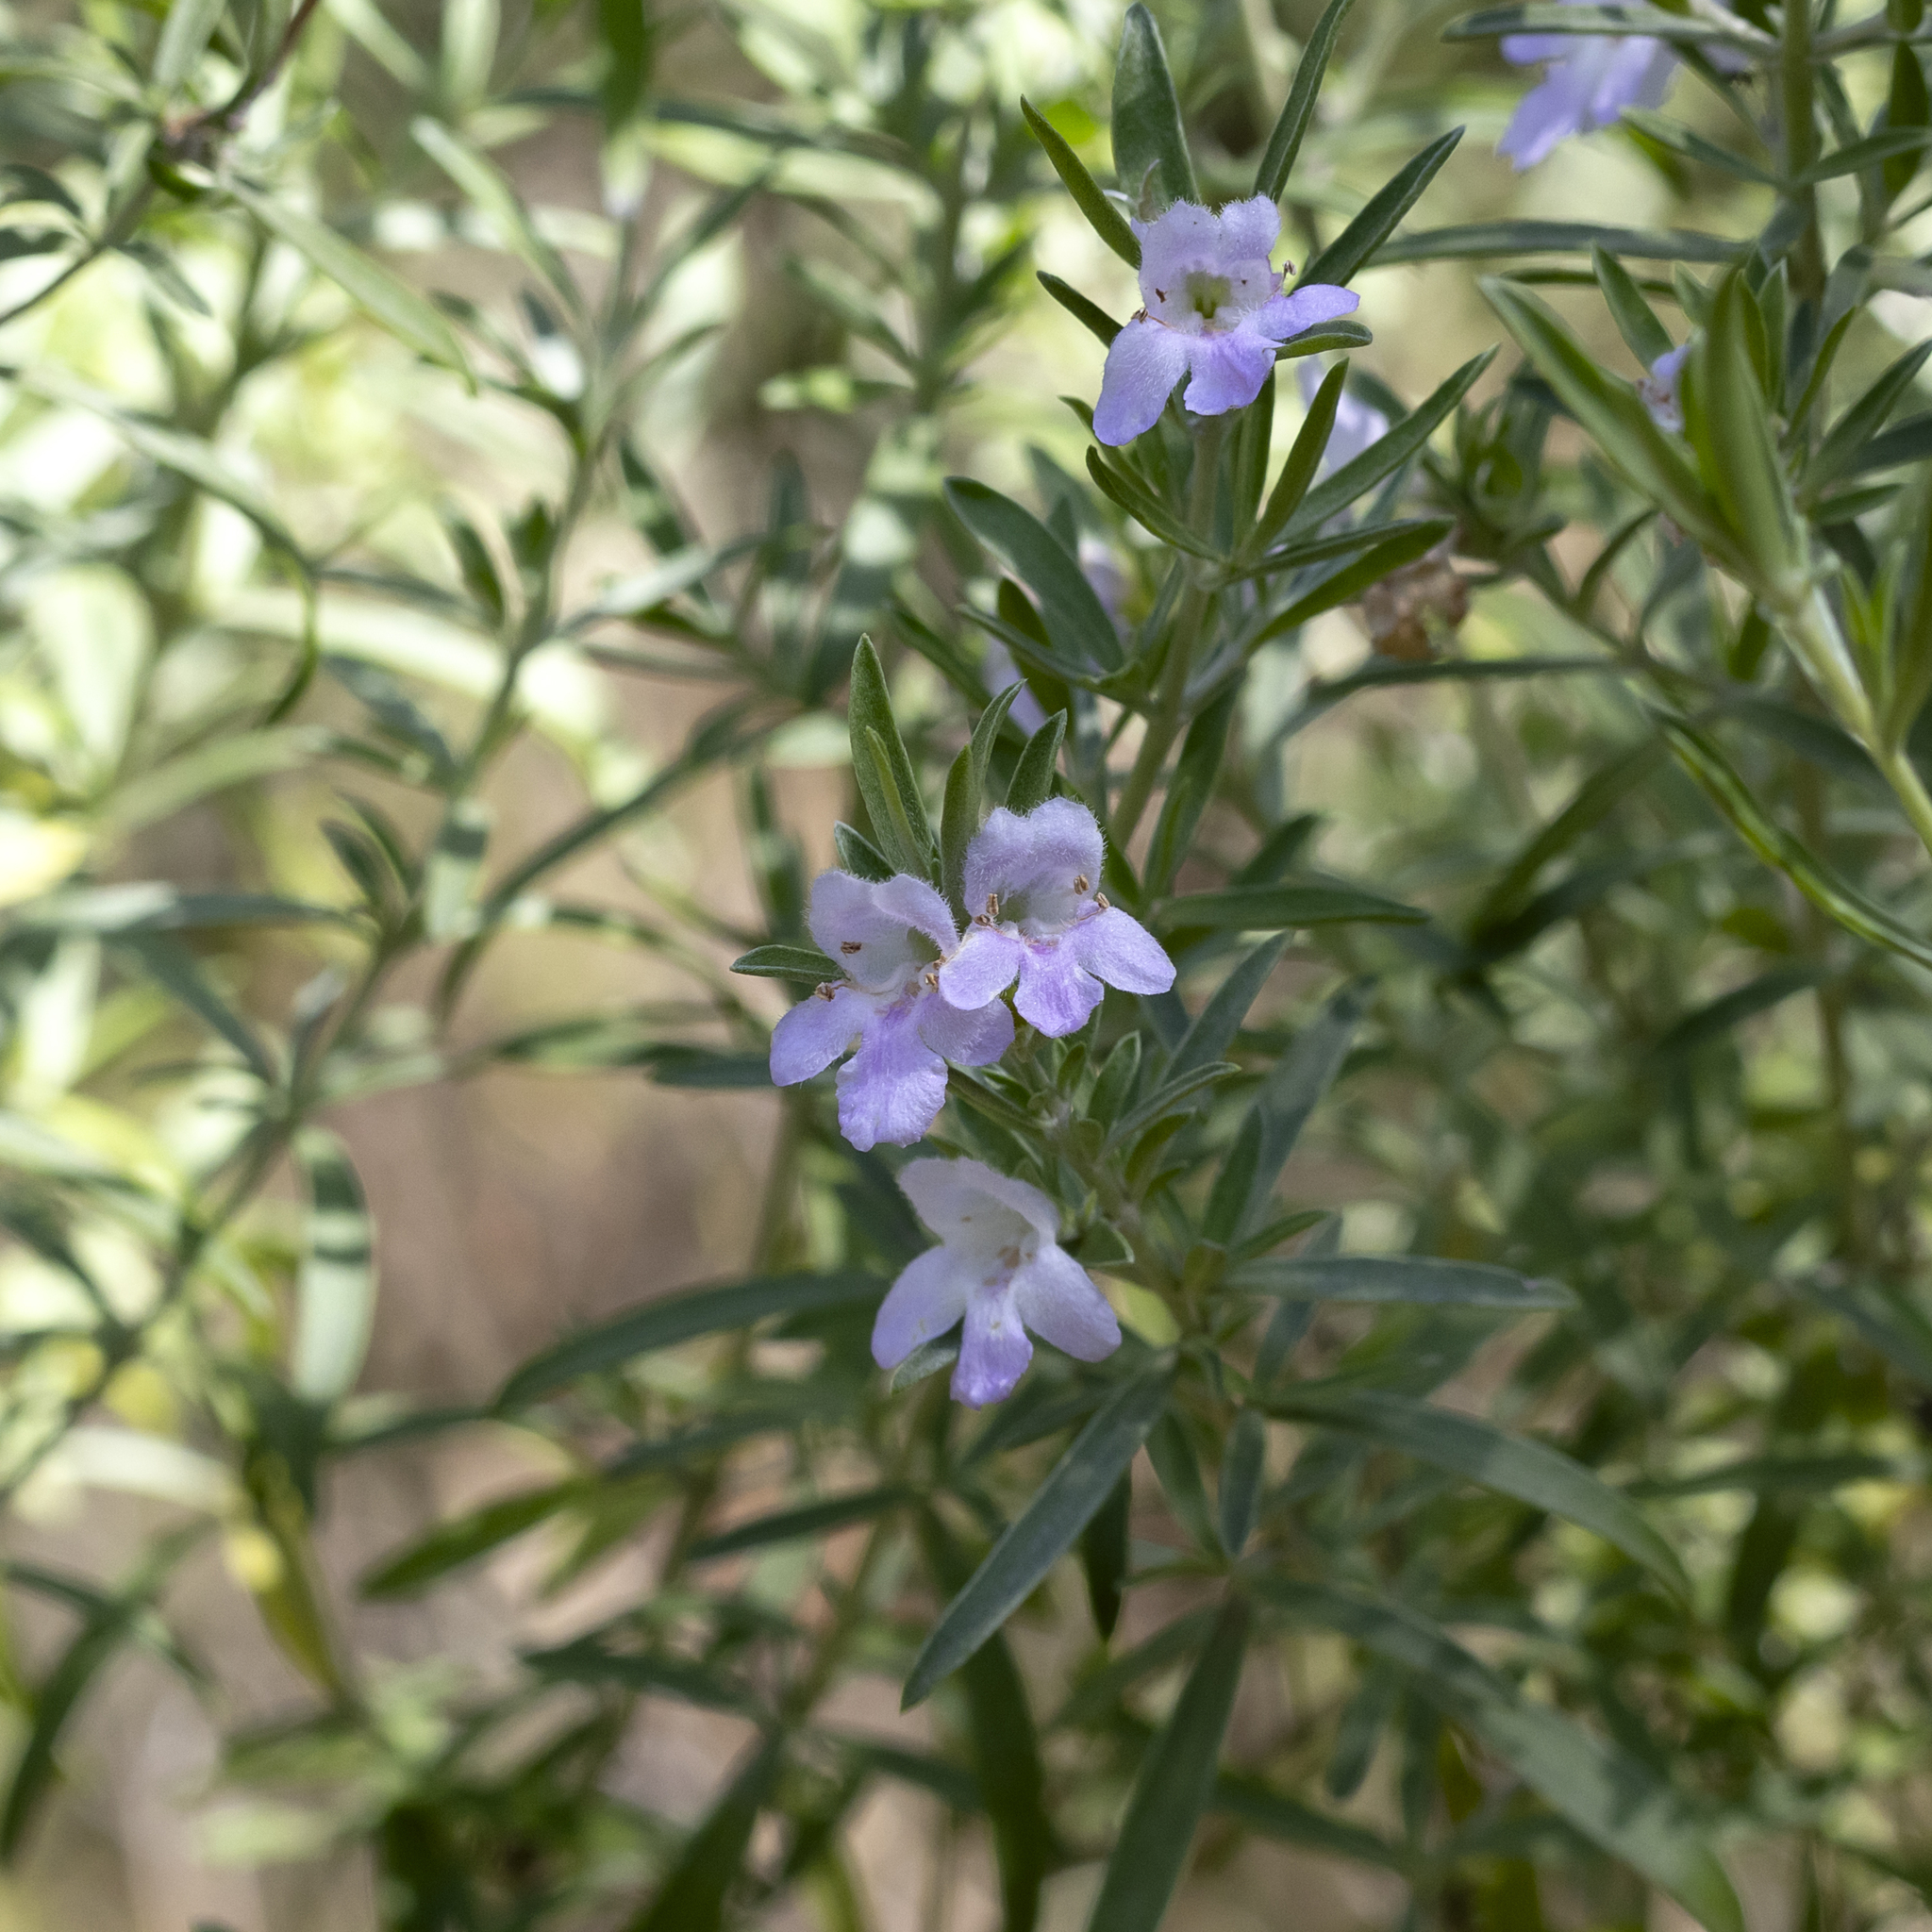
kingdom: Plantae
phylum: Tracheophyta
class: Magnoliopsida
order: Lamiales
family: Lamiaceae
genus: Prostanthera
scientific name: Prostanthera behriana
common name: Downy mintbush
